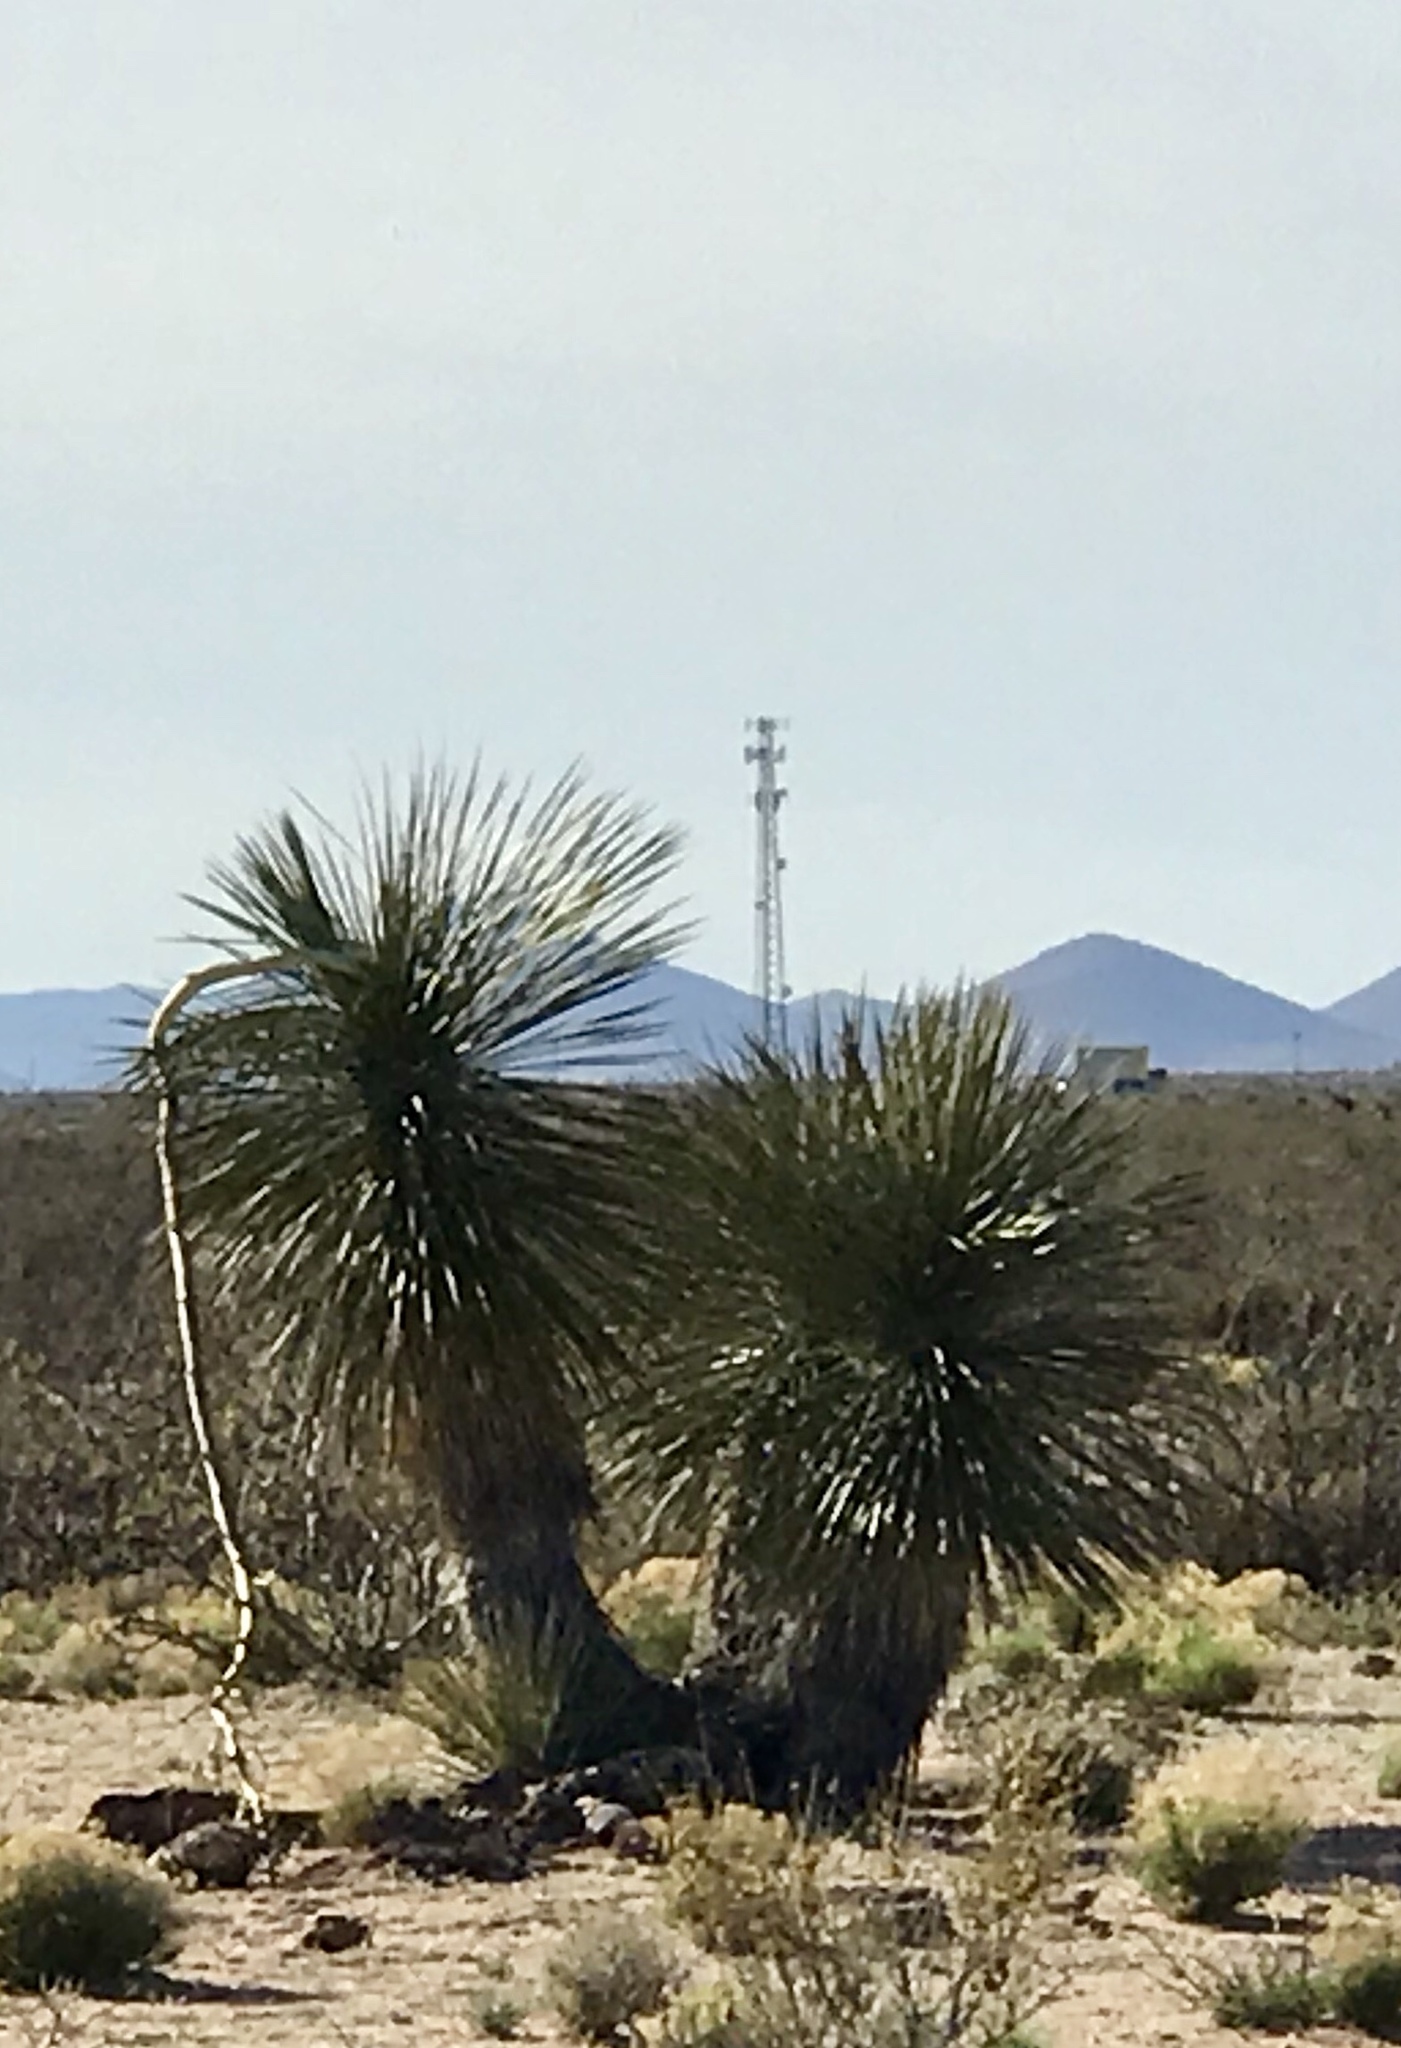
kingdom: Plantae
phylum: Tracheophyta
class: Liliopsida
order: Asparagales
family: Asparagaceae
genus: Yucca
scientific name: Yucca elata
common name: Palmella
